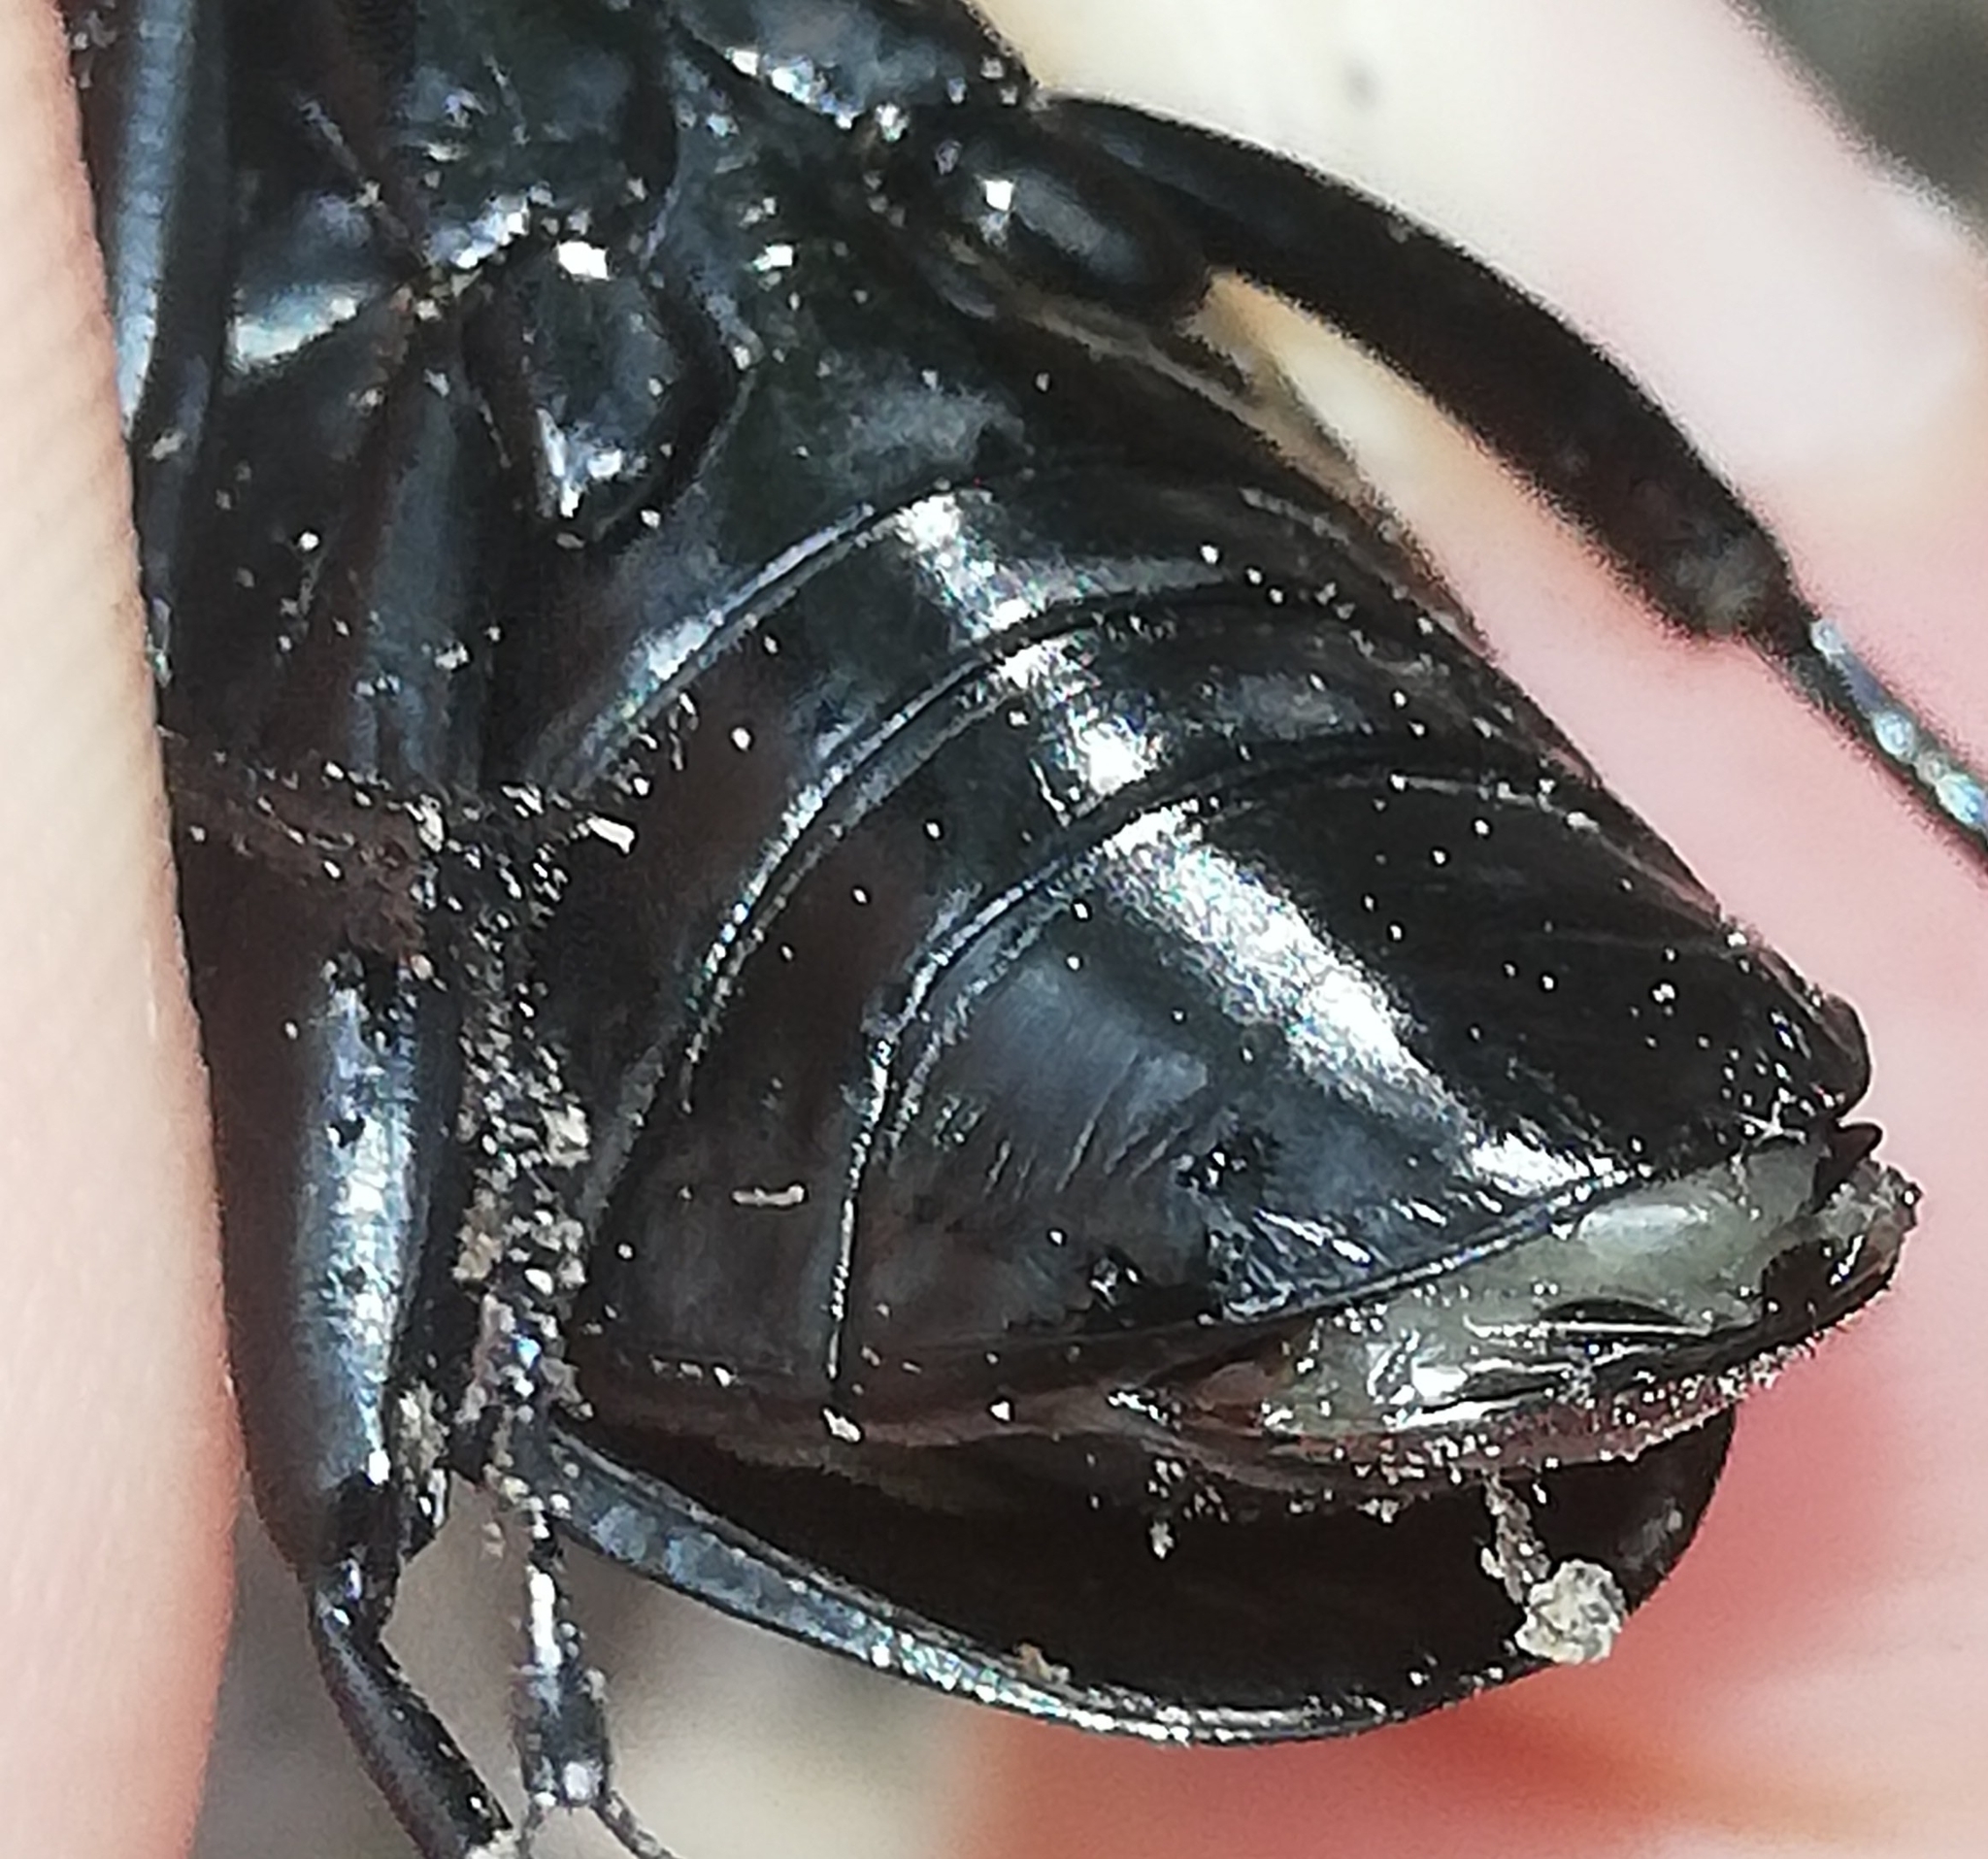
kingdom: Animalia
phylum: Arthropoda
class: Insecta
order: Coleoptera
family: Carabidae
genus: Carabus
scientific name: Carabus coriaceus
